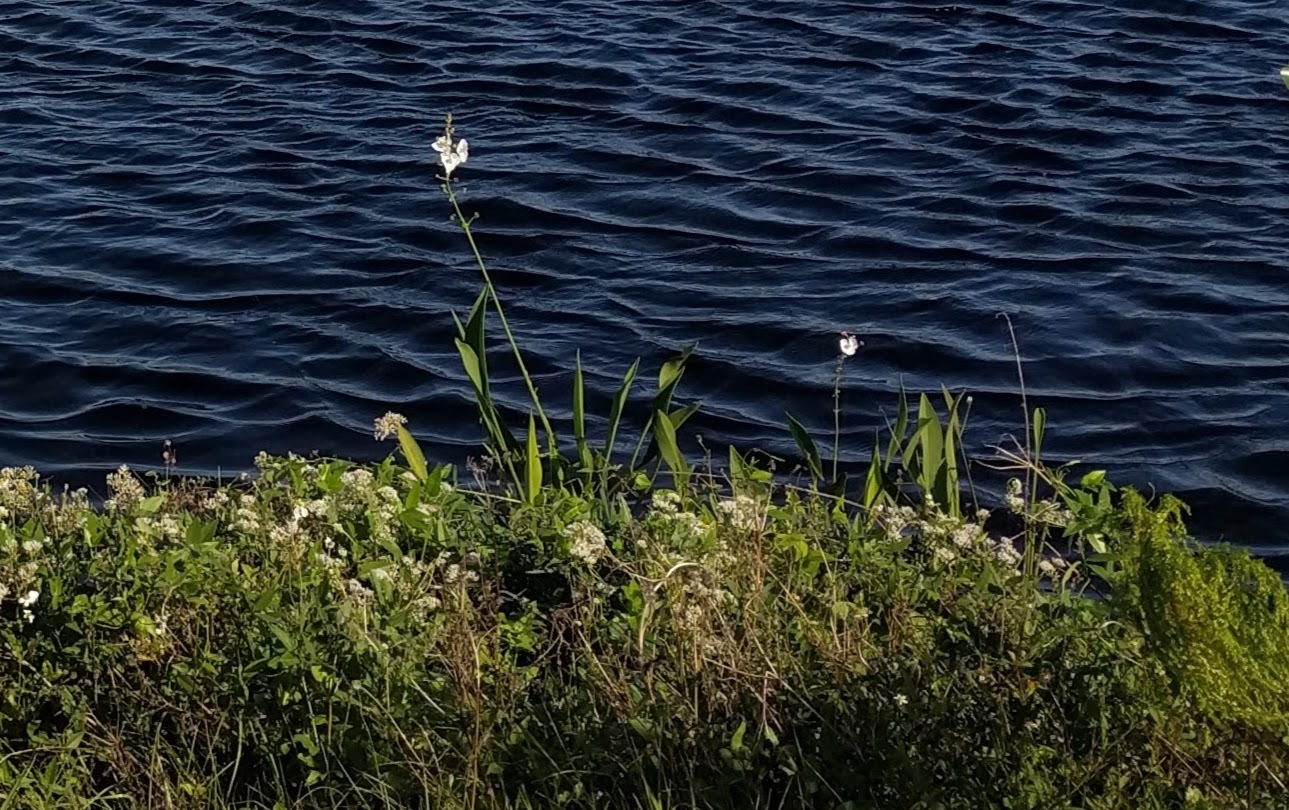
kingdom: Plantae
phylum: Tracheophyta
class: Liliopsida
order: Alismatales
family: Alismataceae
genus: Sagittaria
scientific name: Sagittaria lancifolia
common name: Lance-leaf arrowhead
